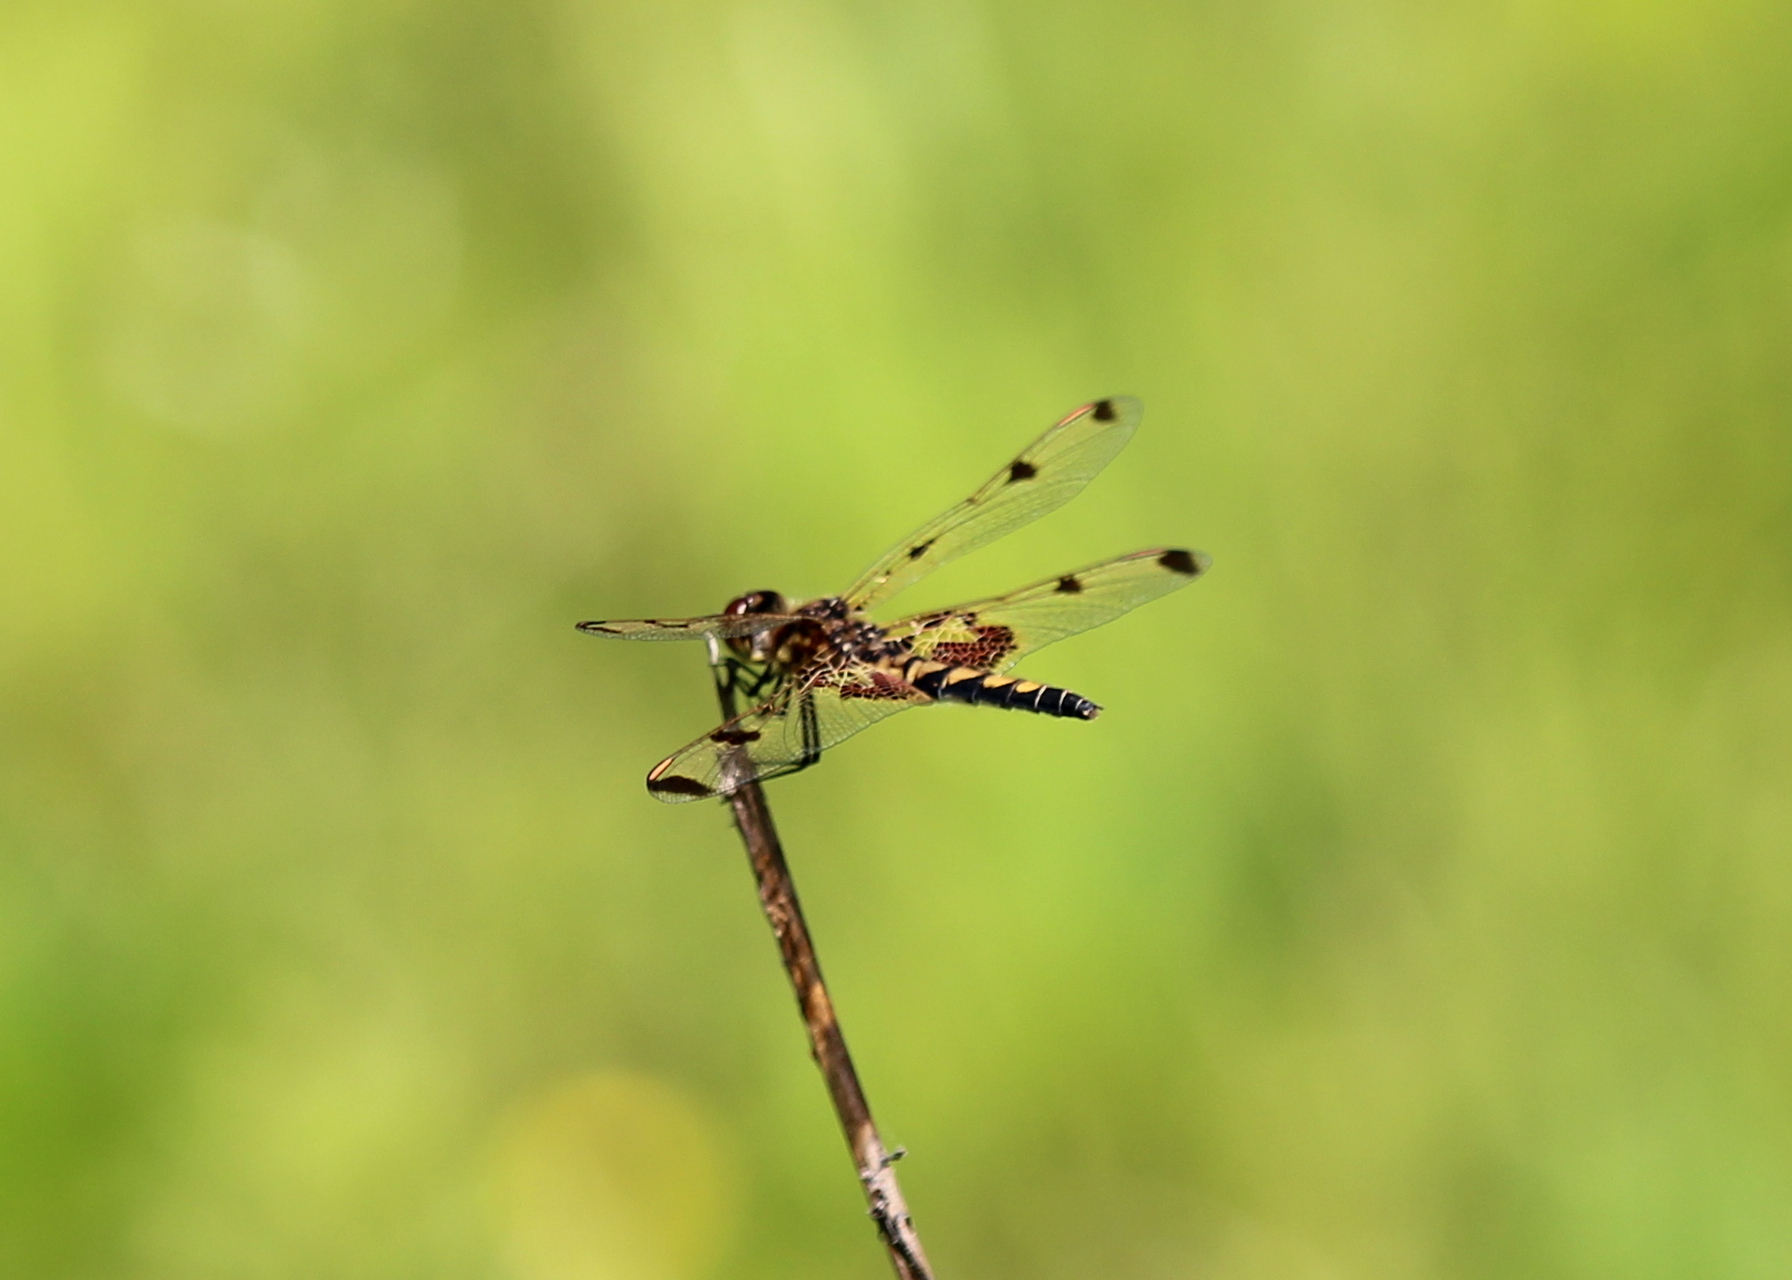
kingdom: Animalia
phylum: Arthropoda
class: Insecta
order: Odonata
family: Libellulidae
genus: Celithemis
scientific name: Celithemis elisa
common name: Calico pennant
